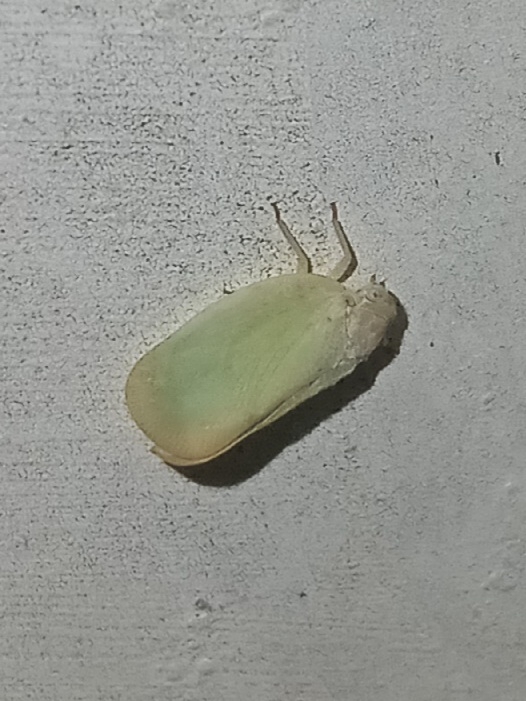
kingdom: Animalia
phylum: Arthropoda
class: Insecta
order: Hemiptera
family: Flatidae
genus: Ormenoides
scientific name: Ormenoides venusta
